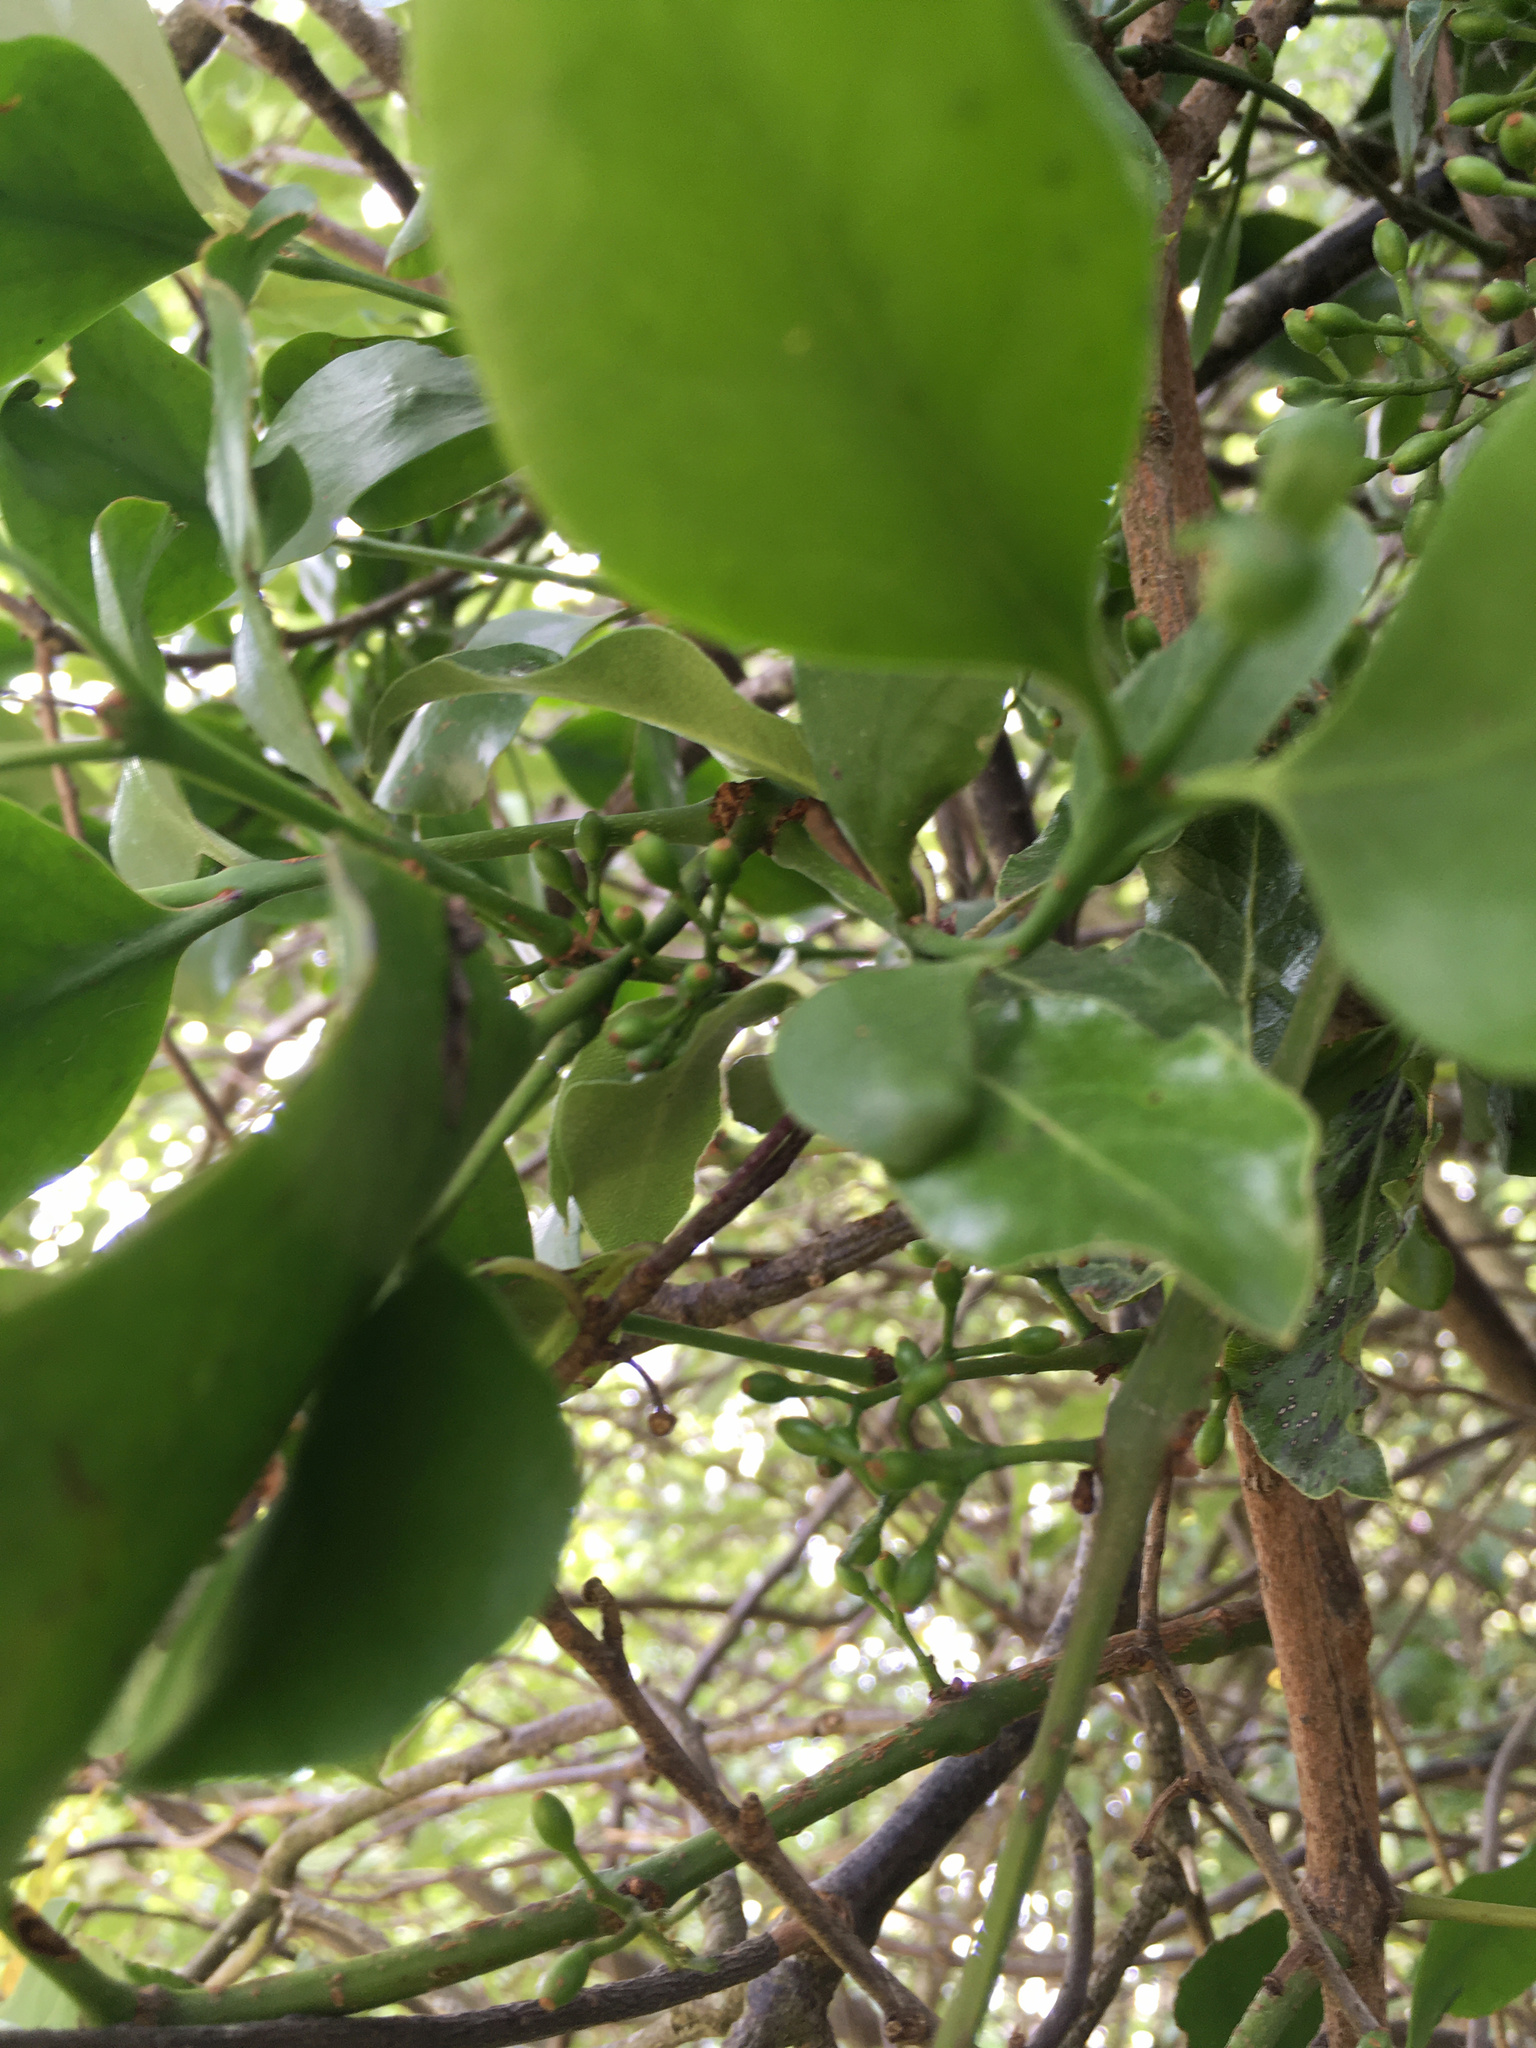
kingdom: Plantae
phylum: Tracheophyta
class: Magnoliopsida
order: Santalales
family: Loranthaceae
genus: Ileostylus
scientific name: Ileostylus micranthus
